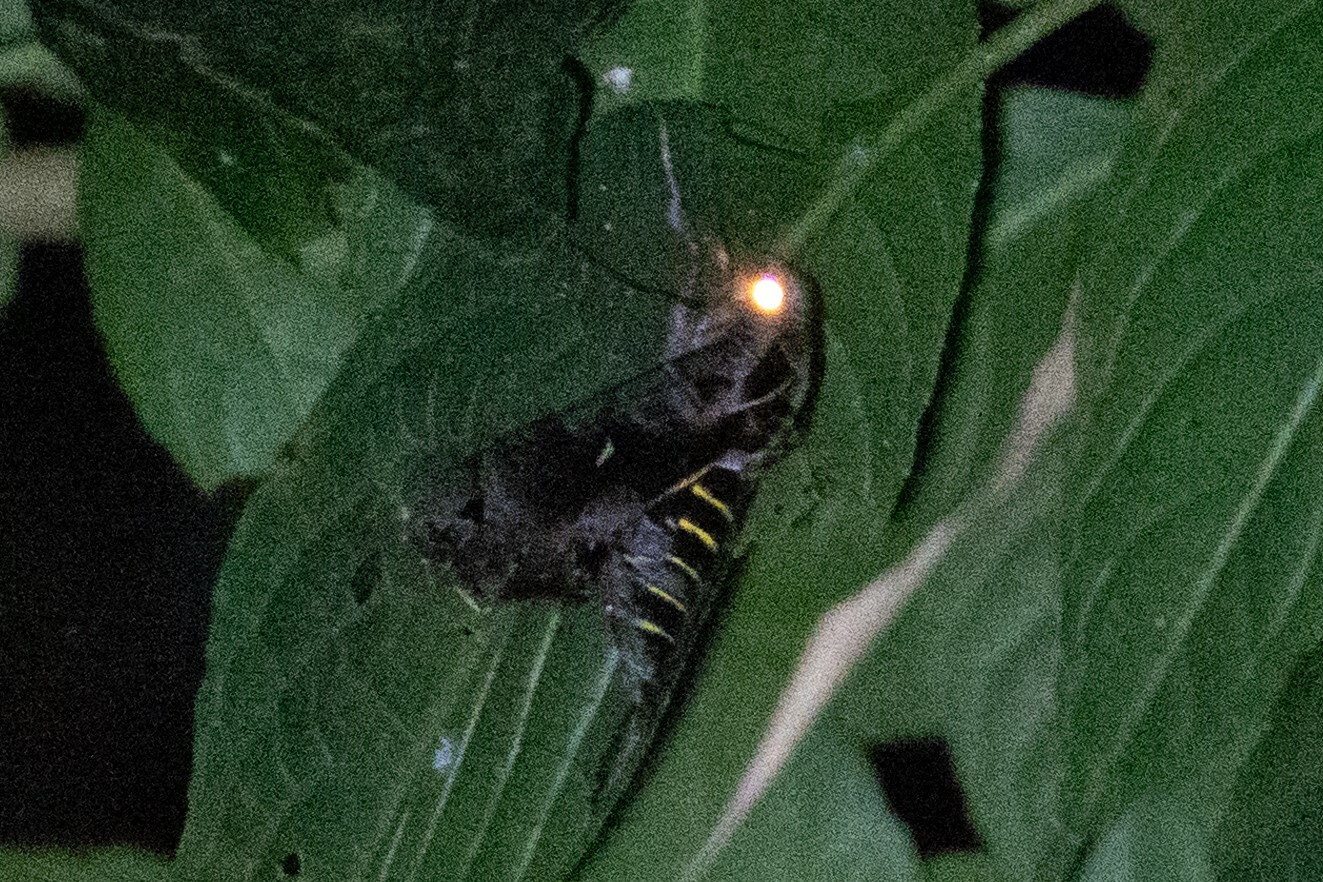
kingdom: Animalia
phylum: Arthropoda
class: Insecta
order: Lepidoptera
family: Sphingidae
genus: Hemeroplanes
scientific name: Hemeroplanes triptolemus
